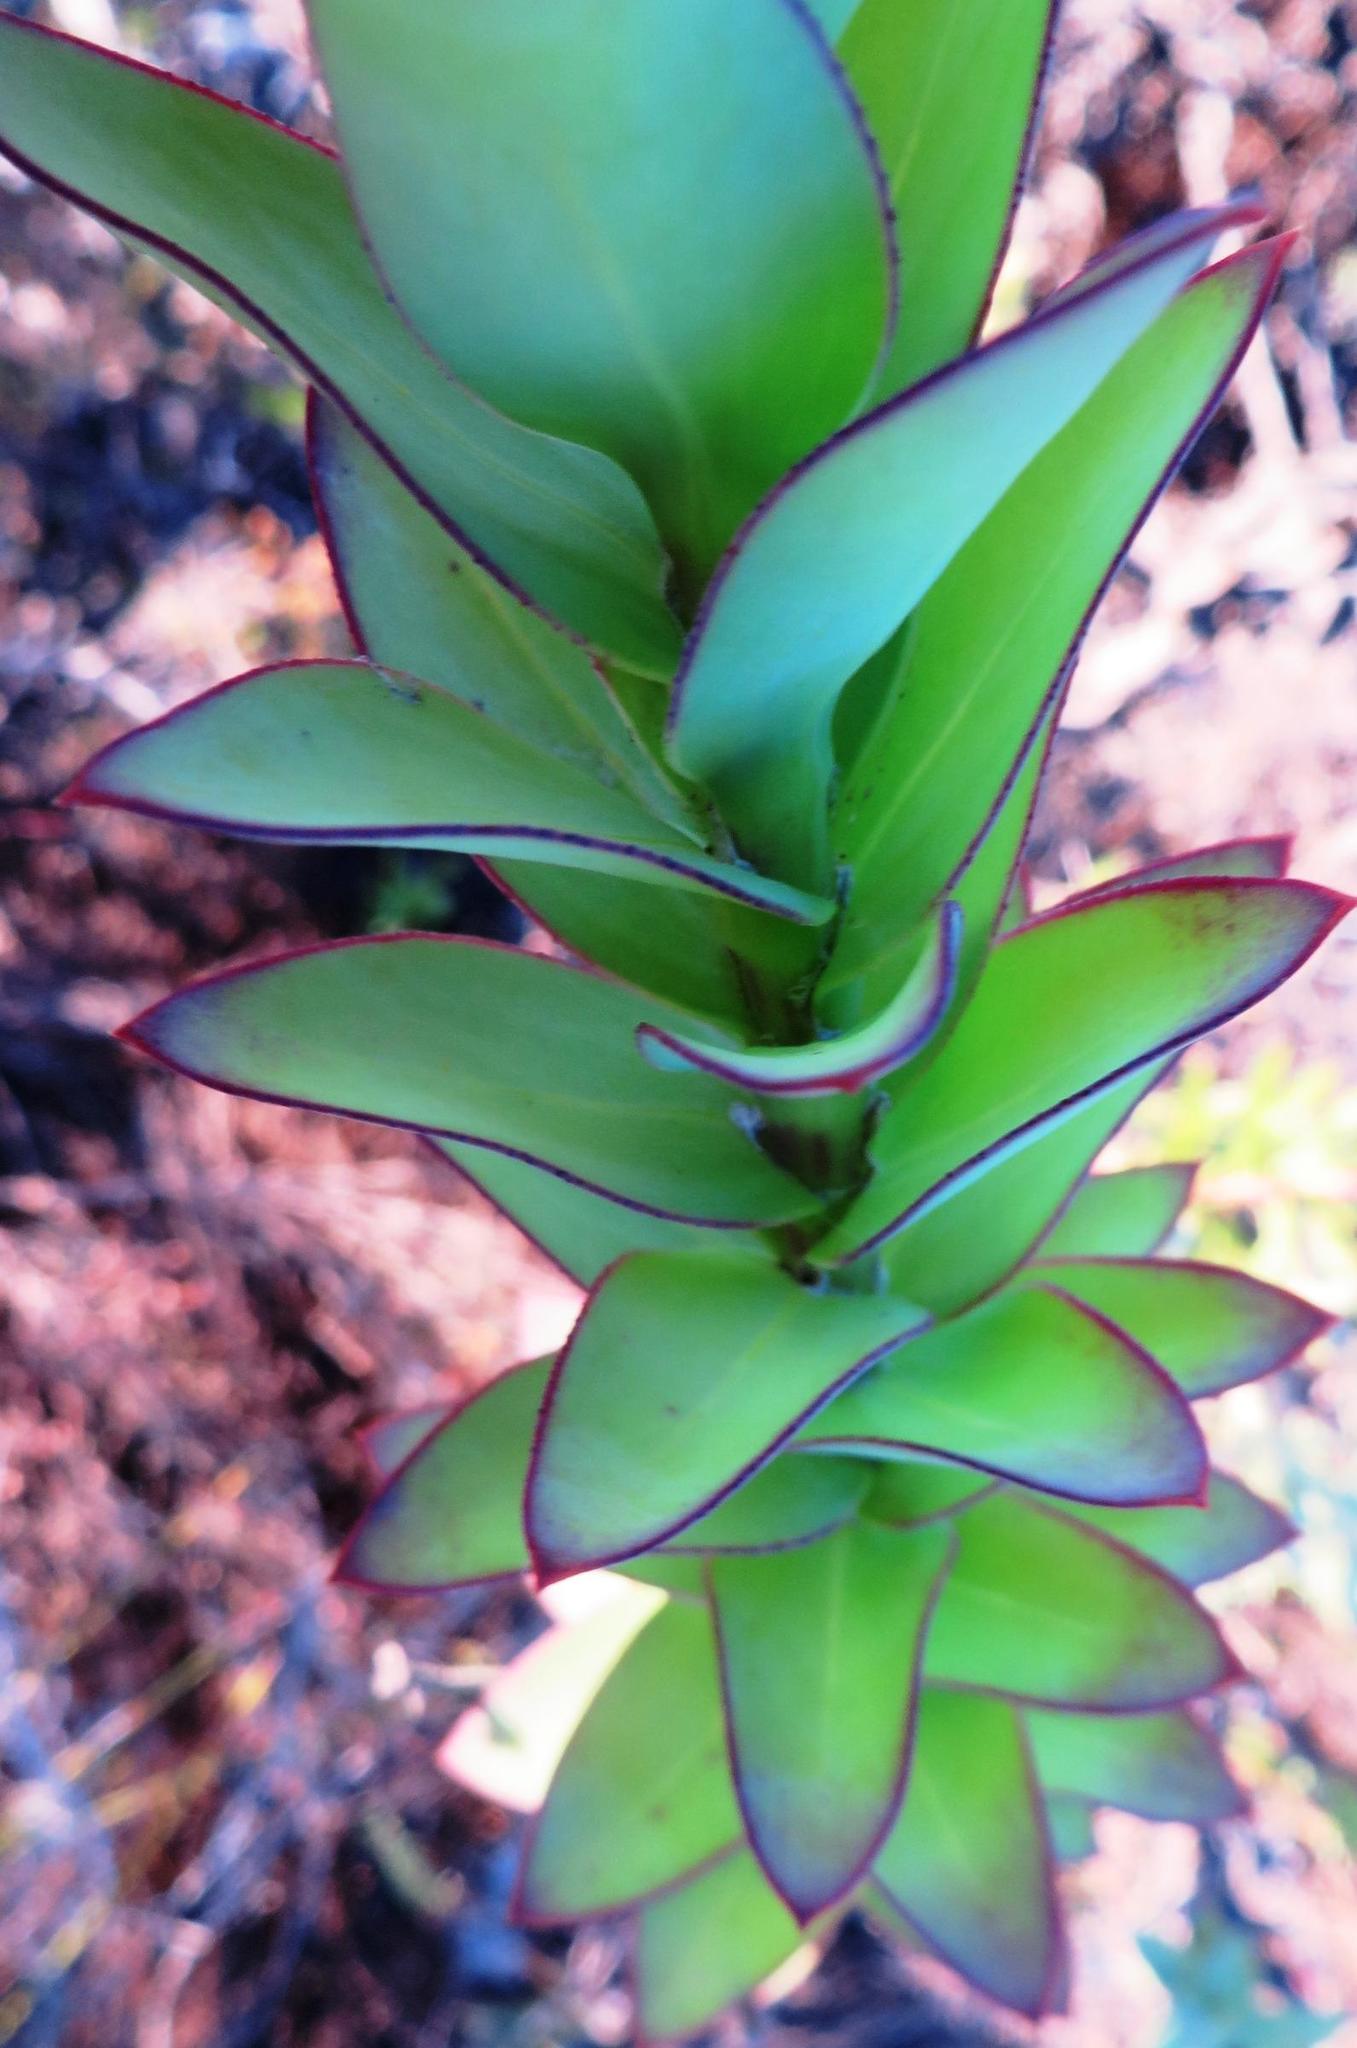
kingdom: Plantae
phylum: Tracheophyta
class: Magnoliopsida
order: Asterales
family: Asteraceae
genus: Osteospermum
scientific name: Osteospermum rotundifolium
